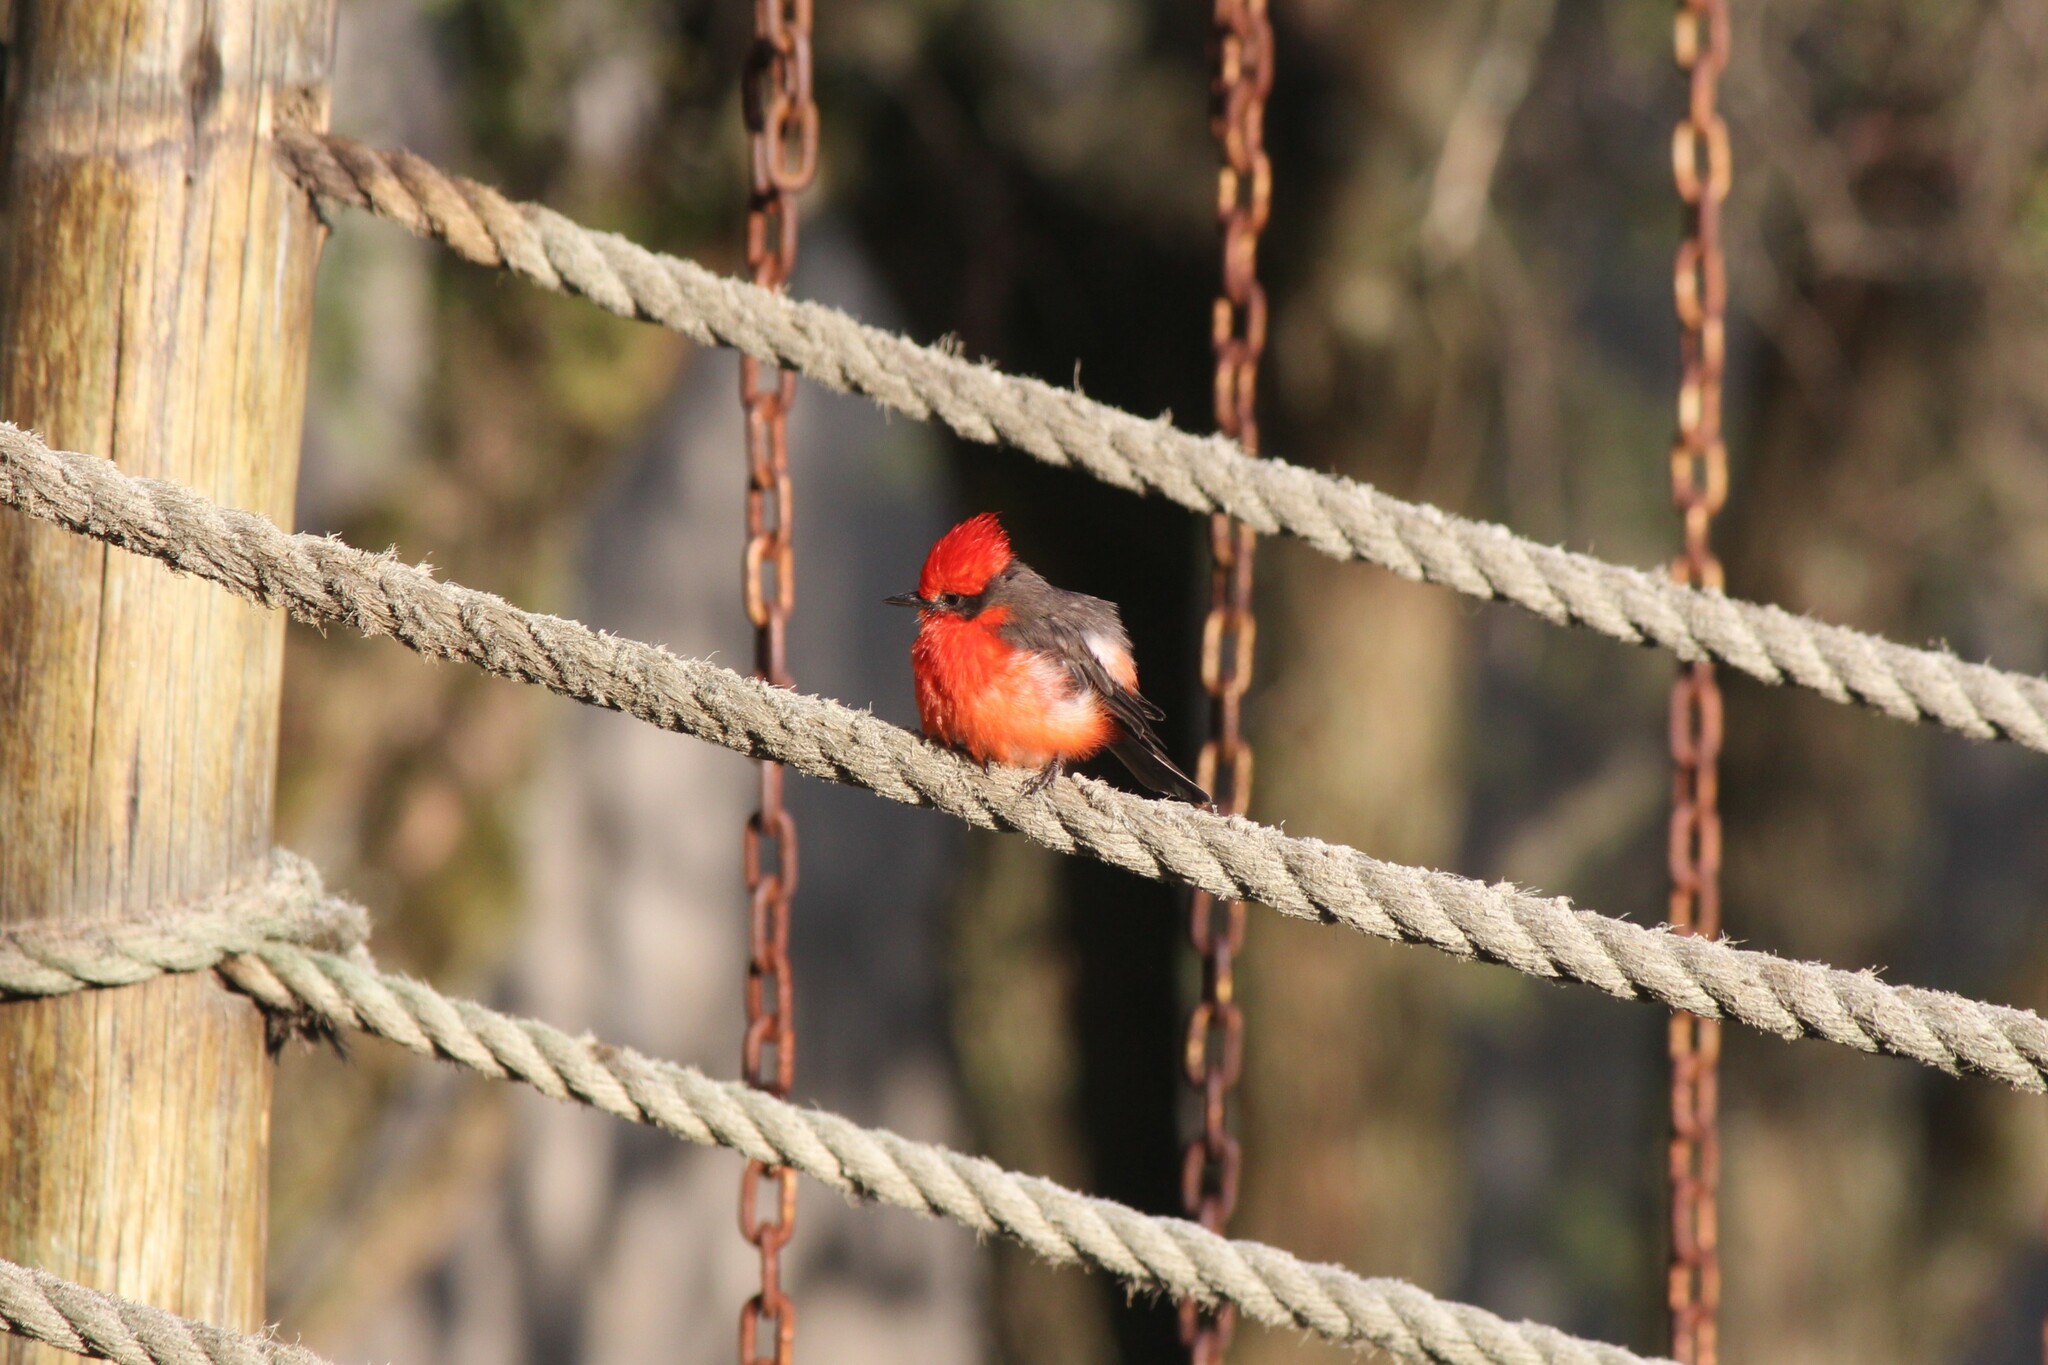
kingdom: Animalia
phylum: Chordata
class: Aves
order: Passeriformes
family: Tyrannidae
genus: Pyrocephalus
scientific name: Pyrocephalus rubinus
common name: Vermilion flycatcher
